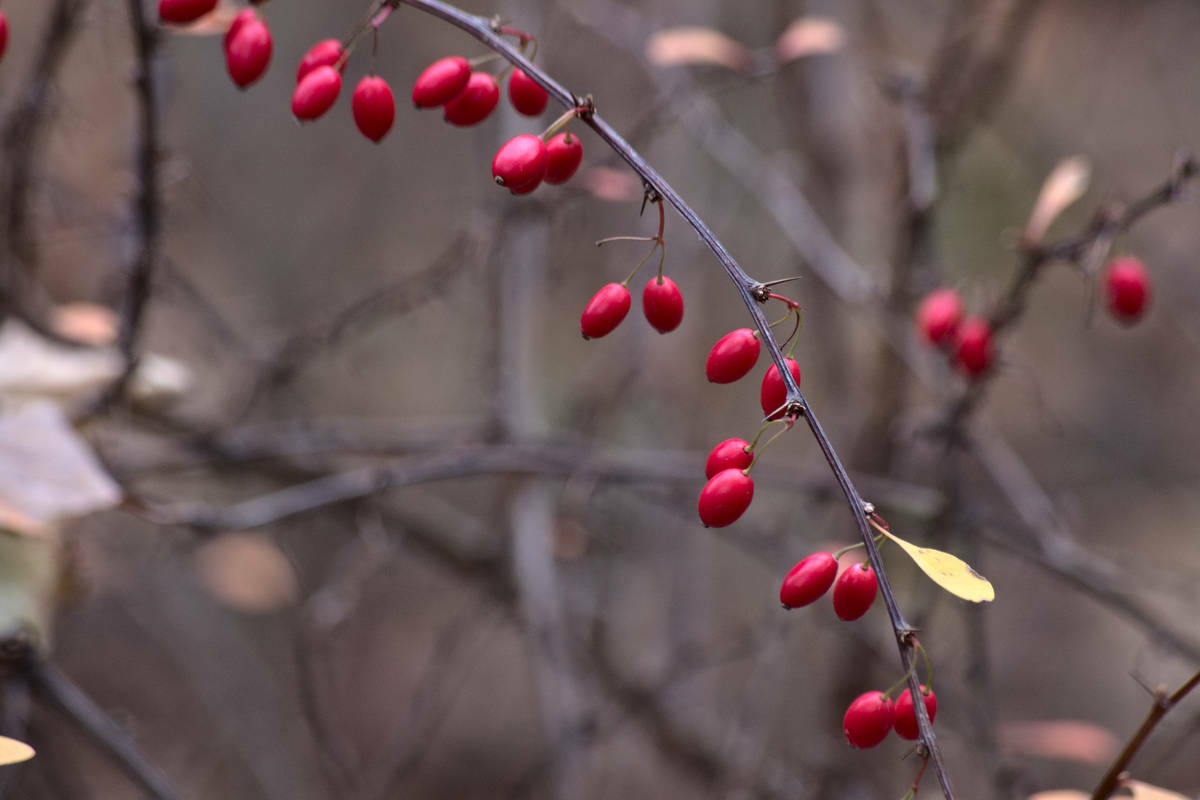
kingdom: Plantae
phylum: Tracheophyta
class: Magnoliopsida
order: Ranunculales
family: Berberidaceae
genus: Berberis
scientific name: Berberis thunbergii
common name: Japanese barberry
